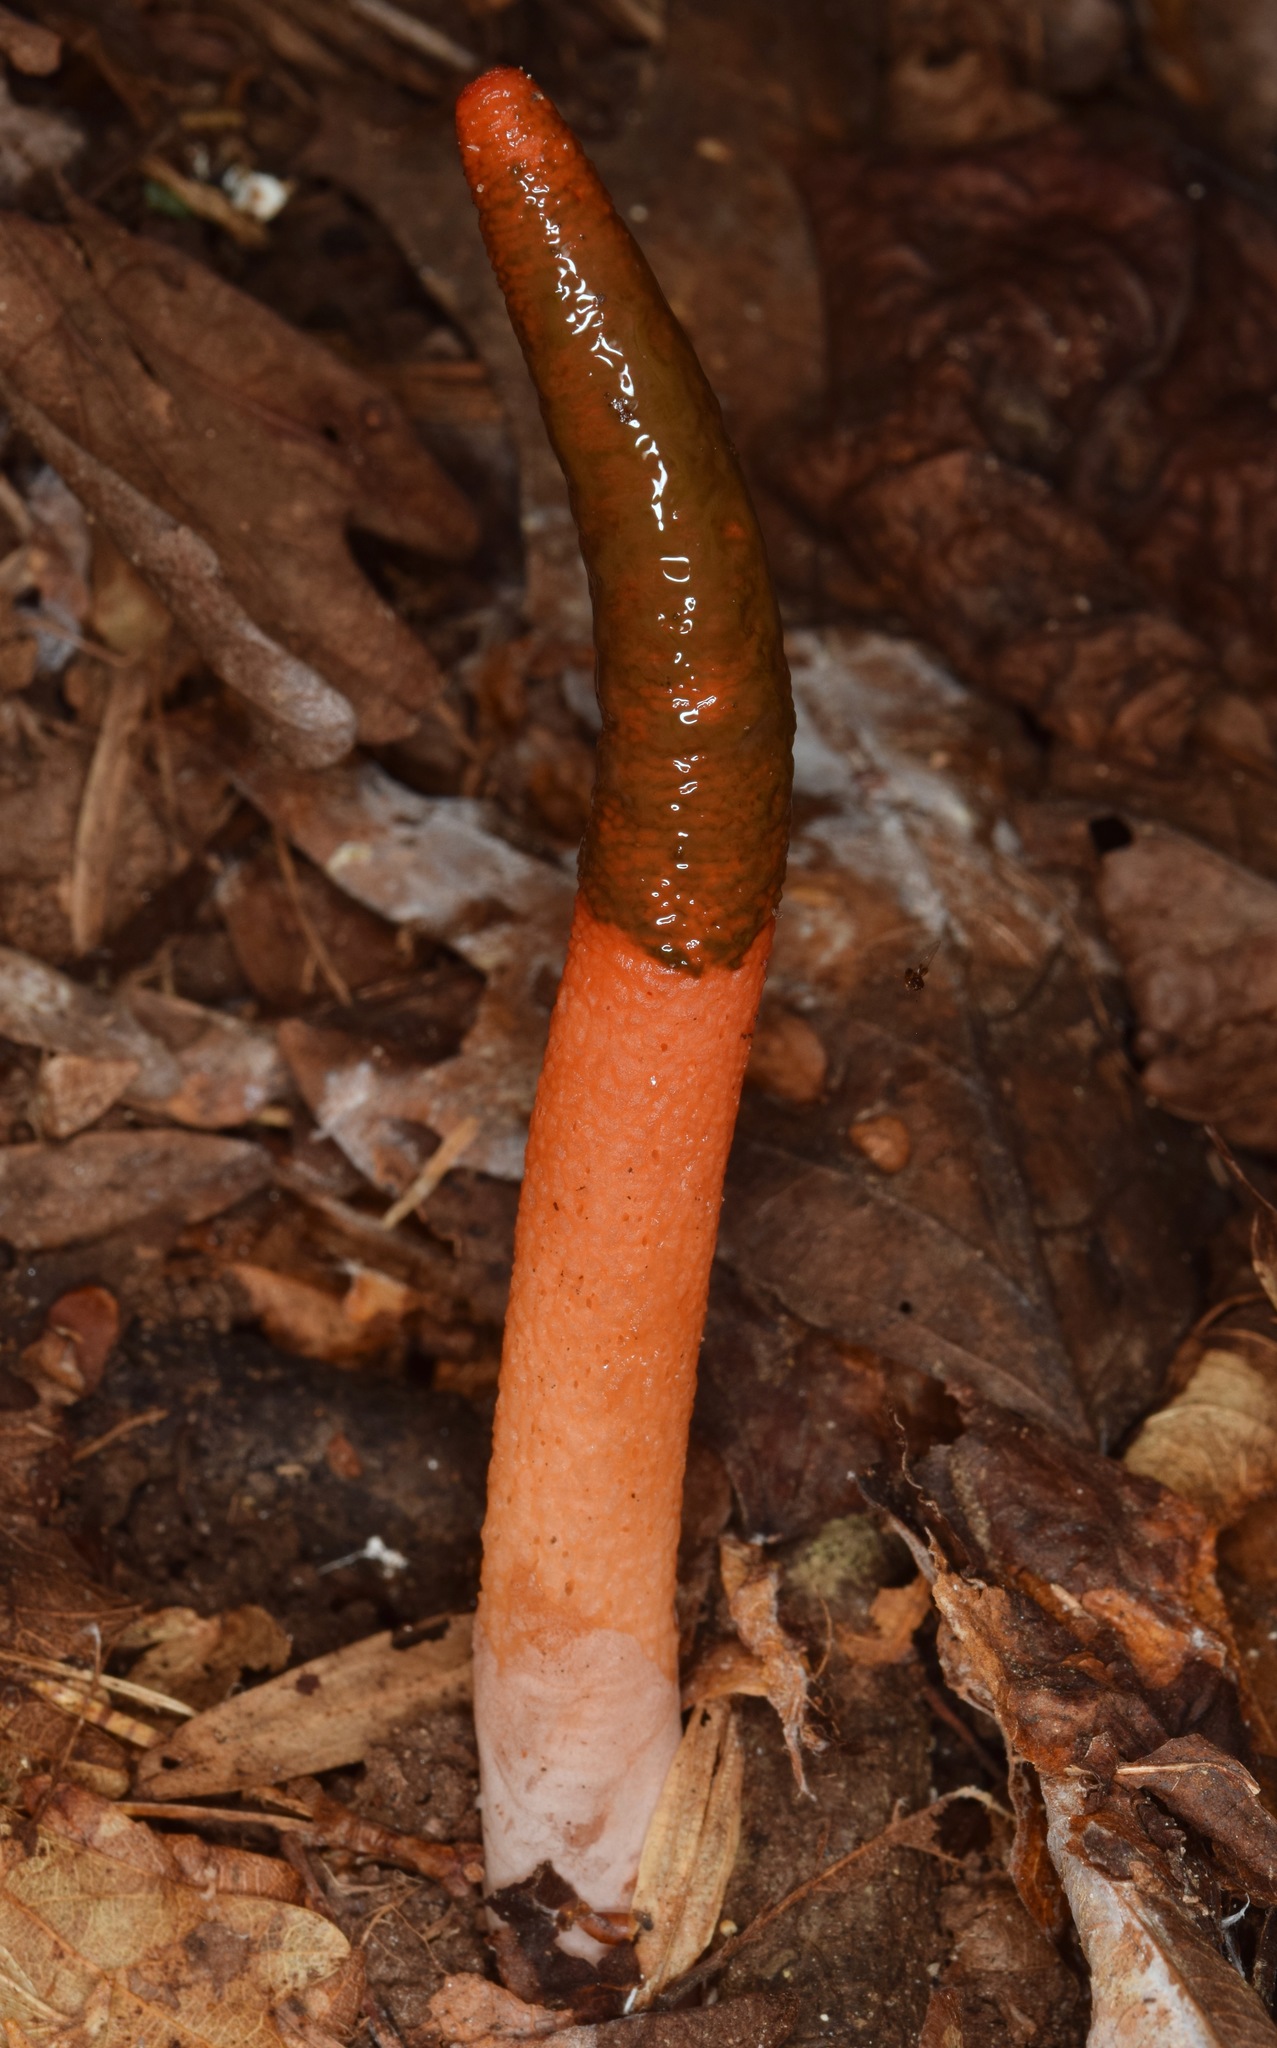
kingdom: Fungi
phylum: Basidiomycota
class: Agaricomycetes
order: Phallales
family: Phallaceae
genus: Mutinus
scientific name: Mutinus elegans
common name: Devil's dipstick
